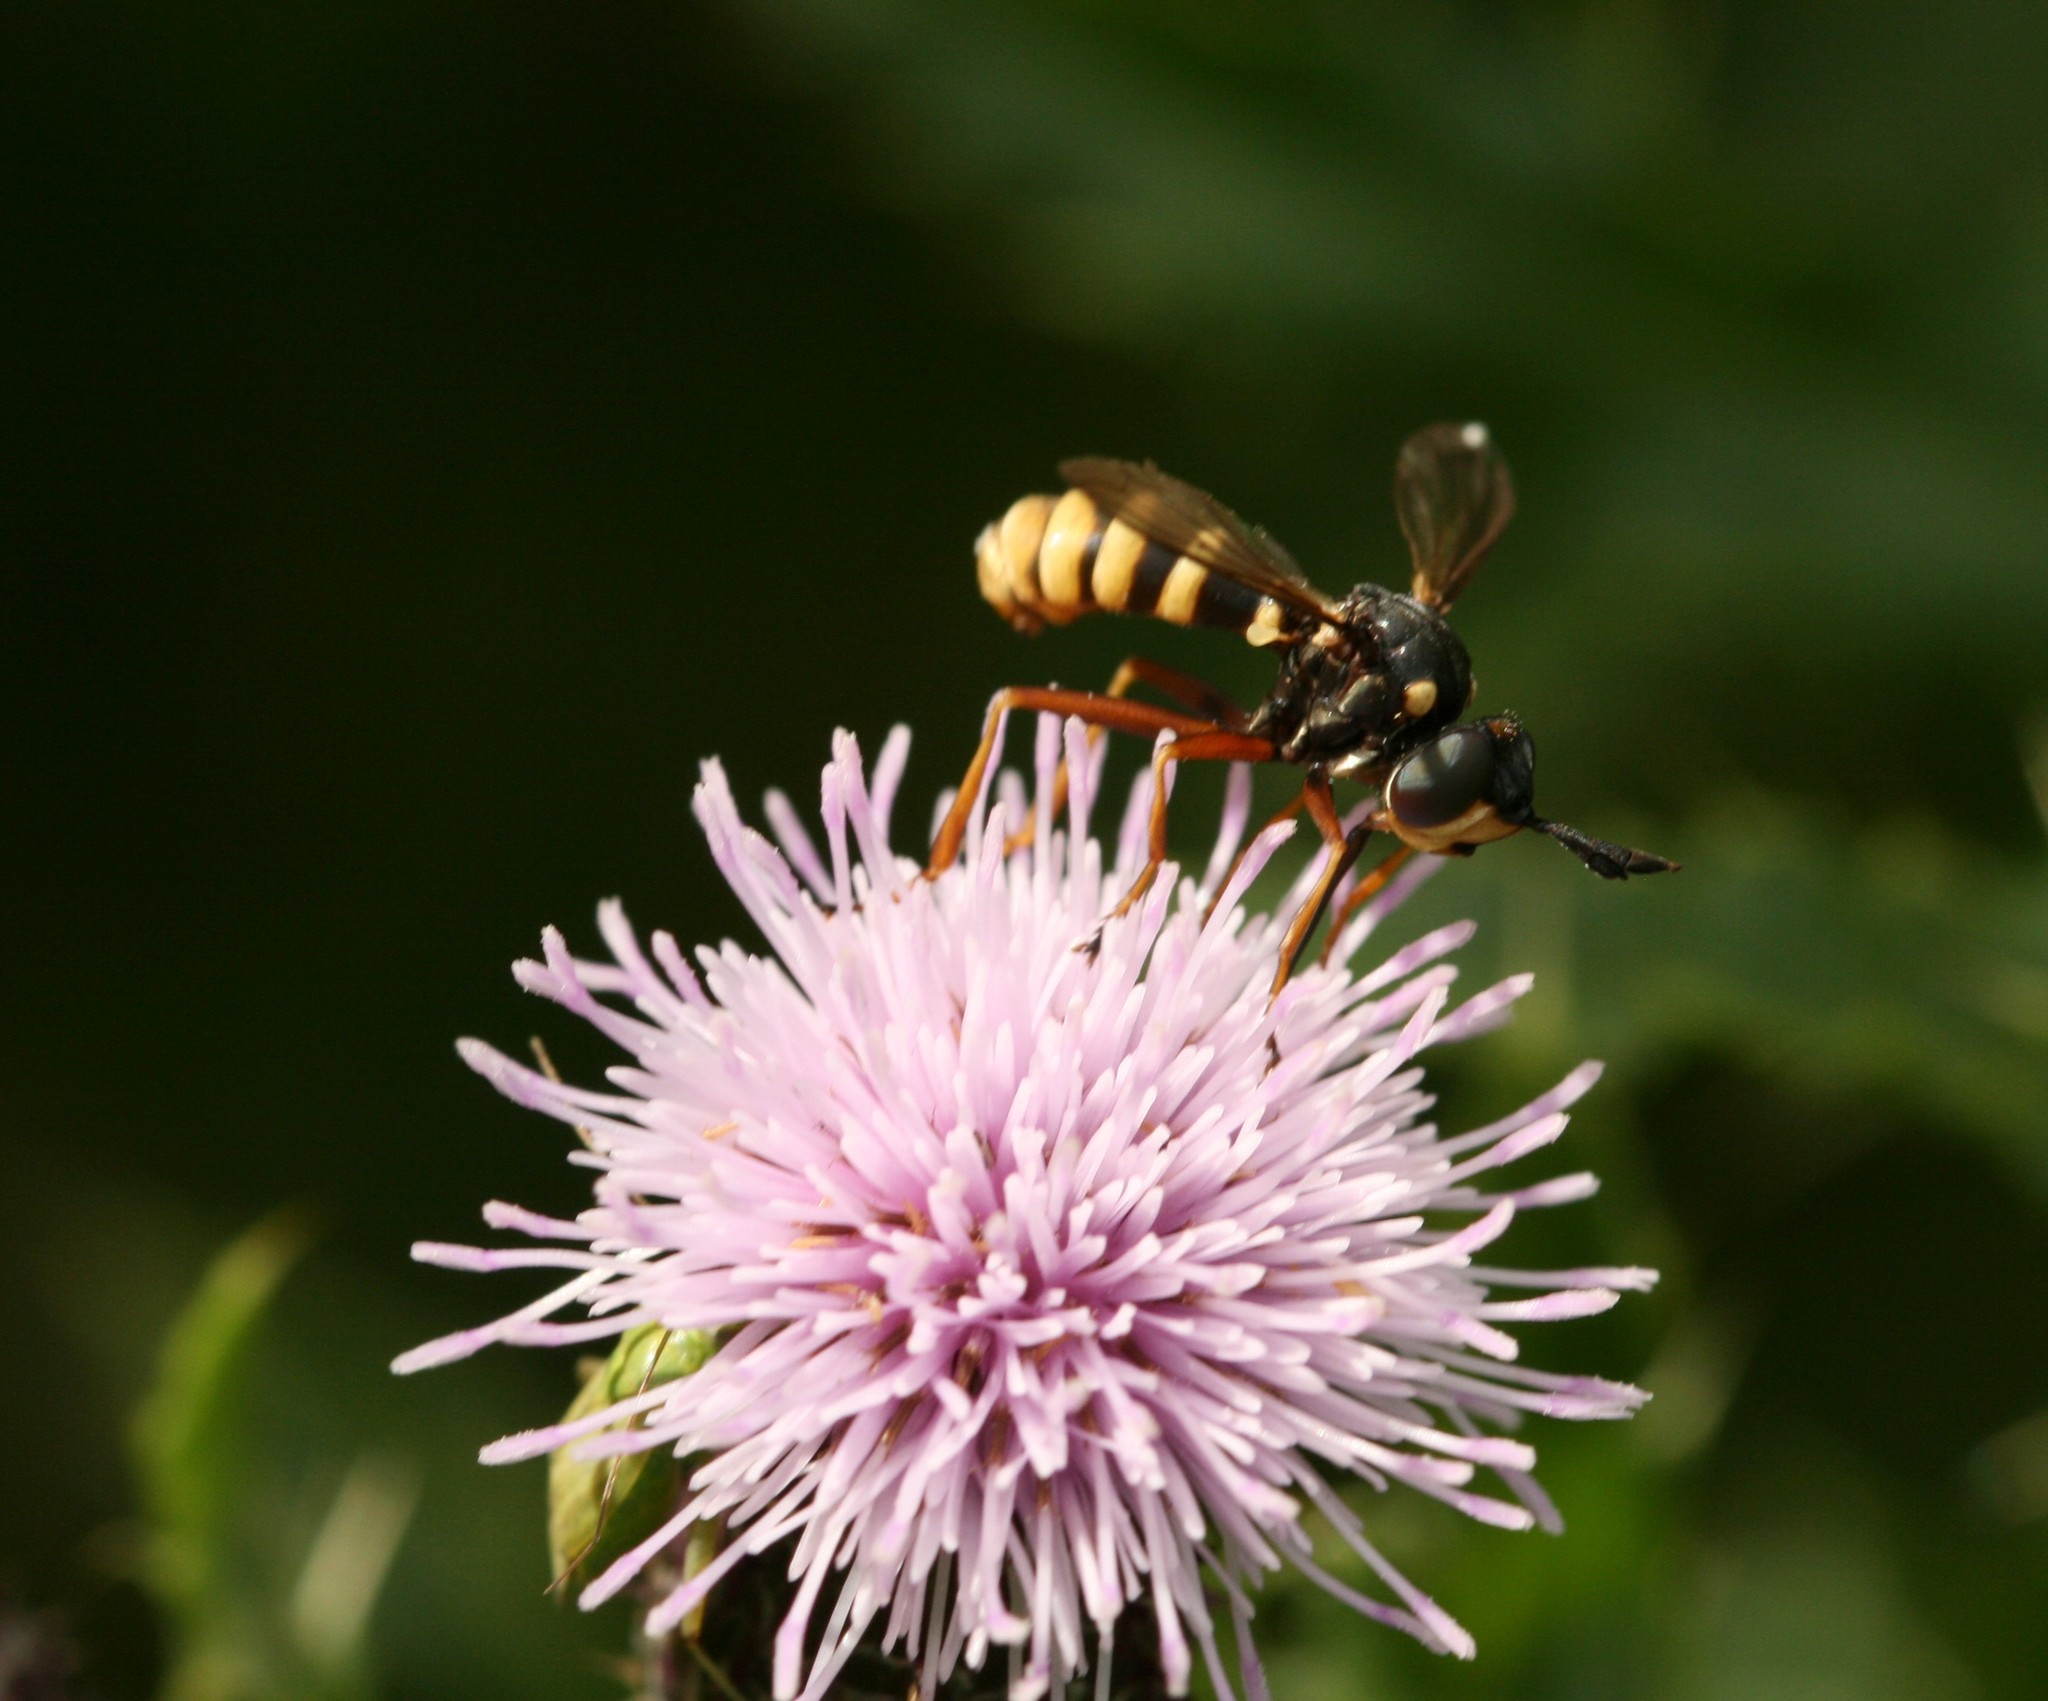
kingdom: Animalia
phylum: Arthropoda
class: Insecta
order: Diptera
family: Conopidae
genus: Conops
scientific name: Conops quadrifasciatus
